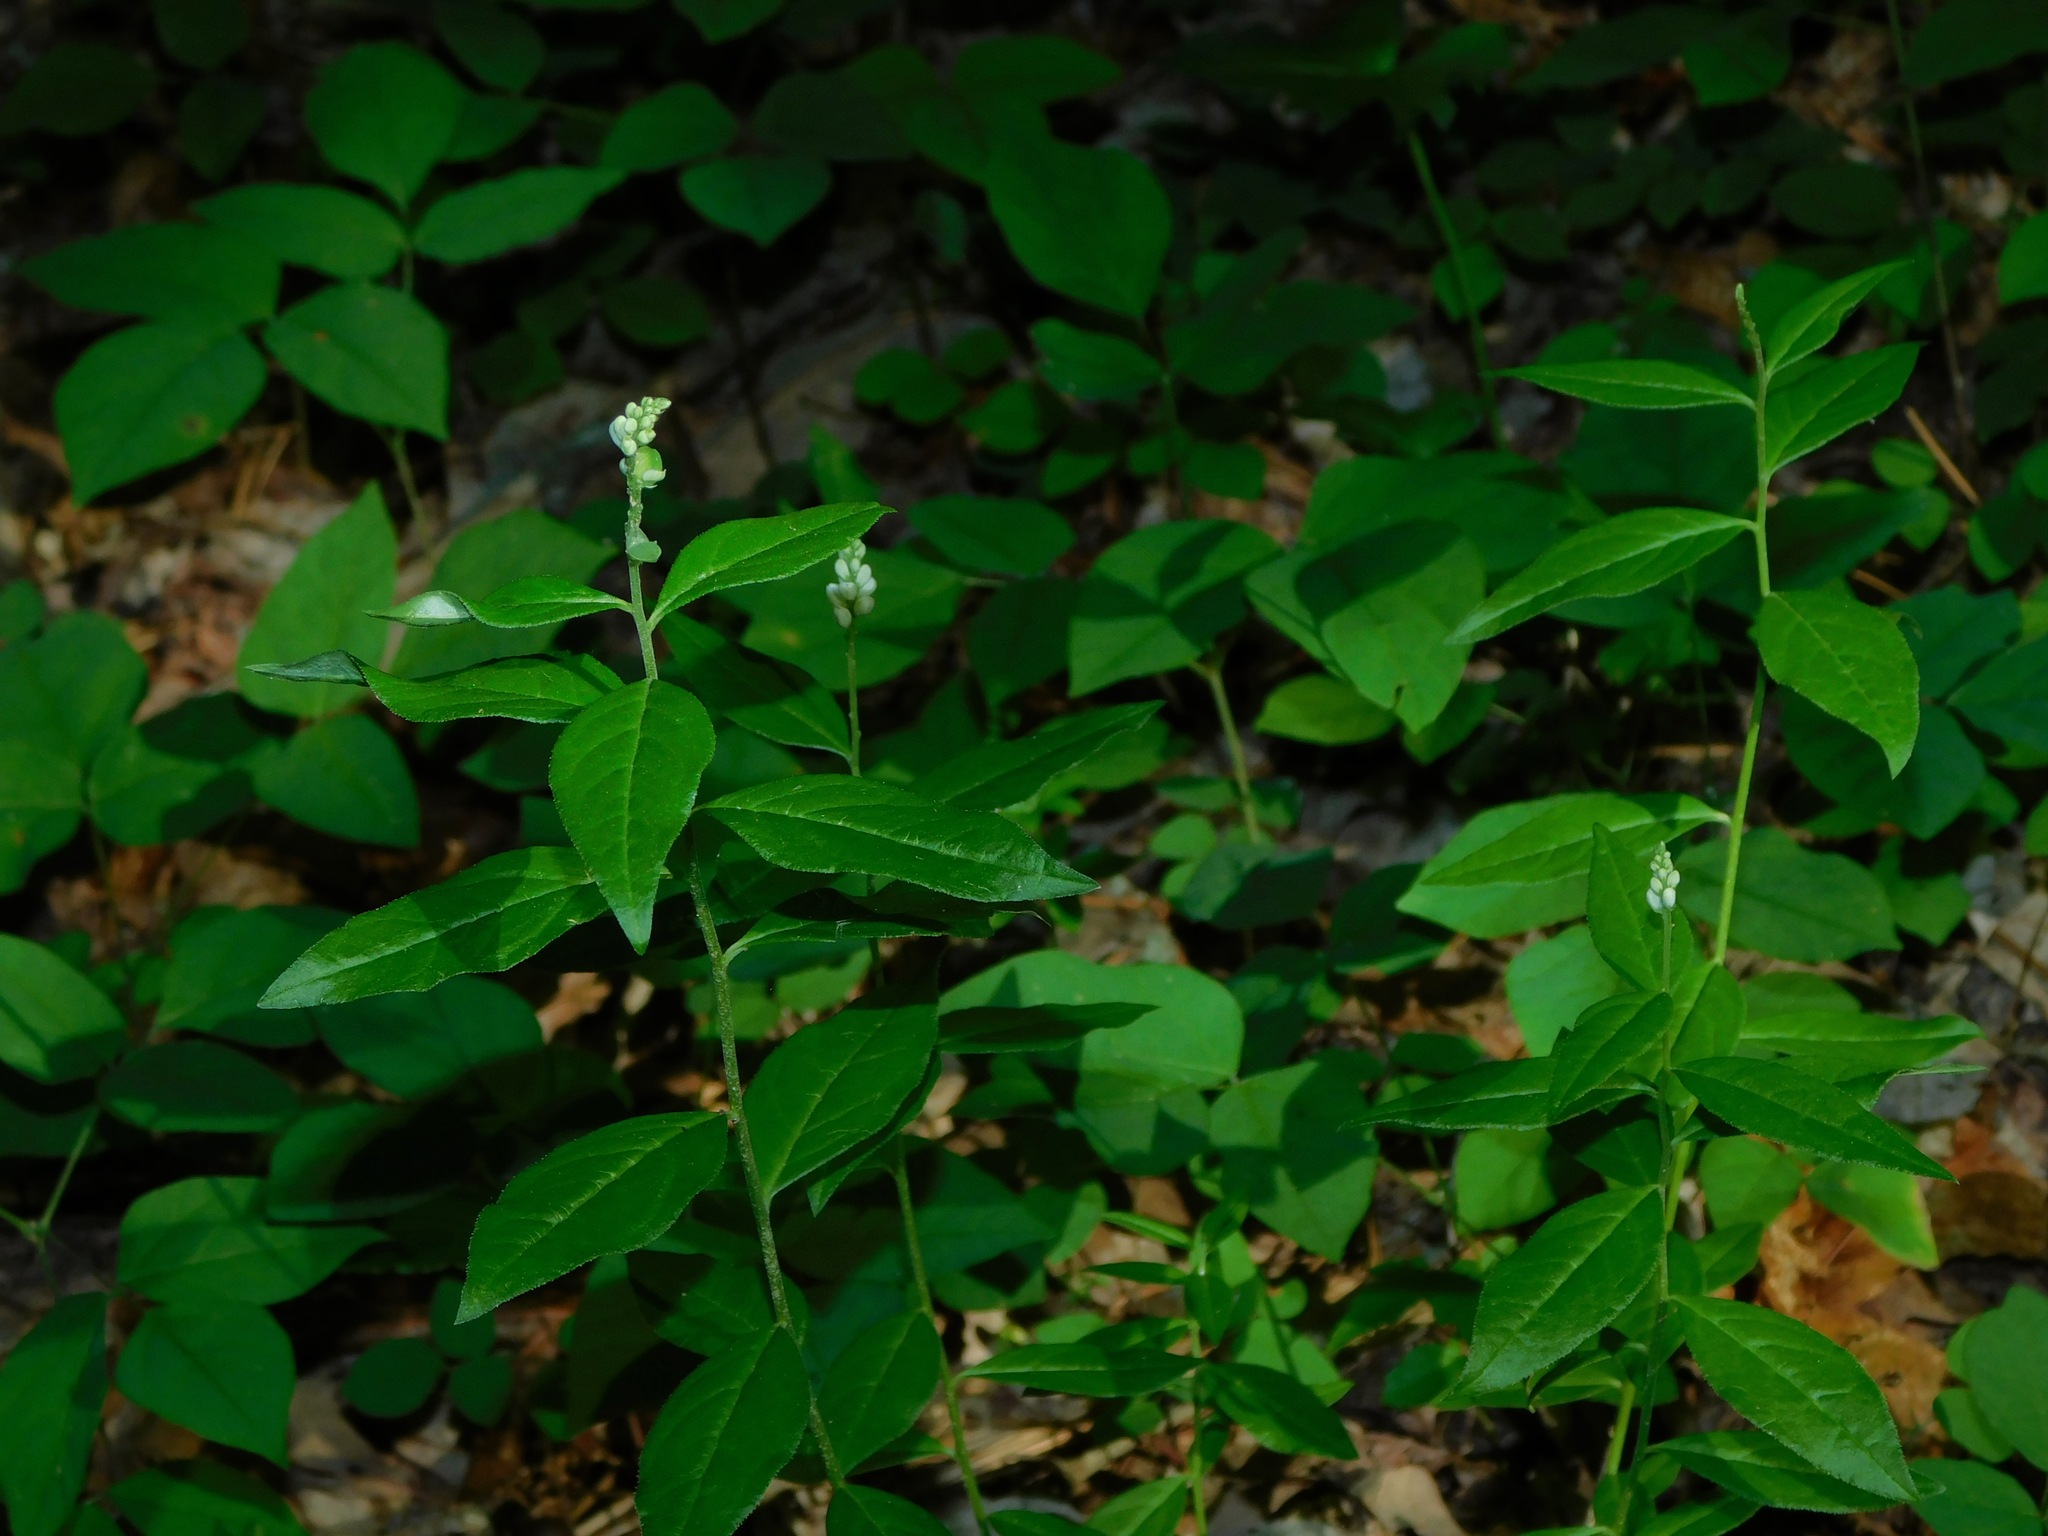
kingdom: Plantae
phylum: Tracheophyta
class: Magnoliopsida
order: Fabales
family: Polygalaceae
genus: Polygala
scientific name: Polygala senega
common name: Seneca snakeroot
